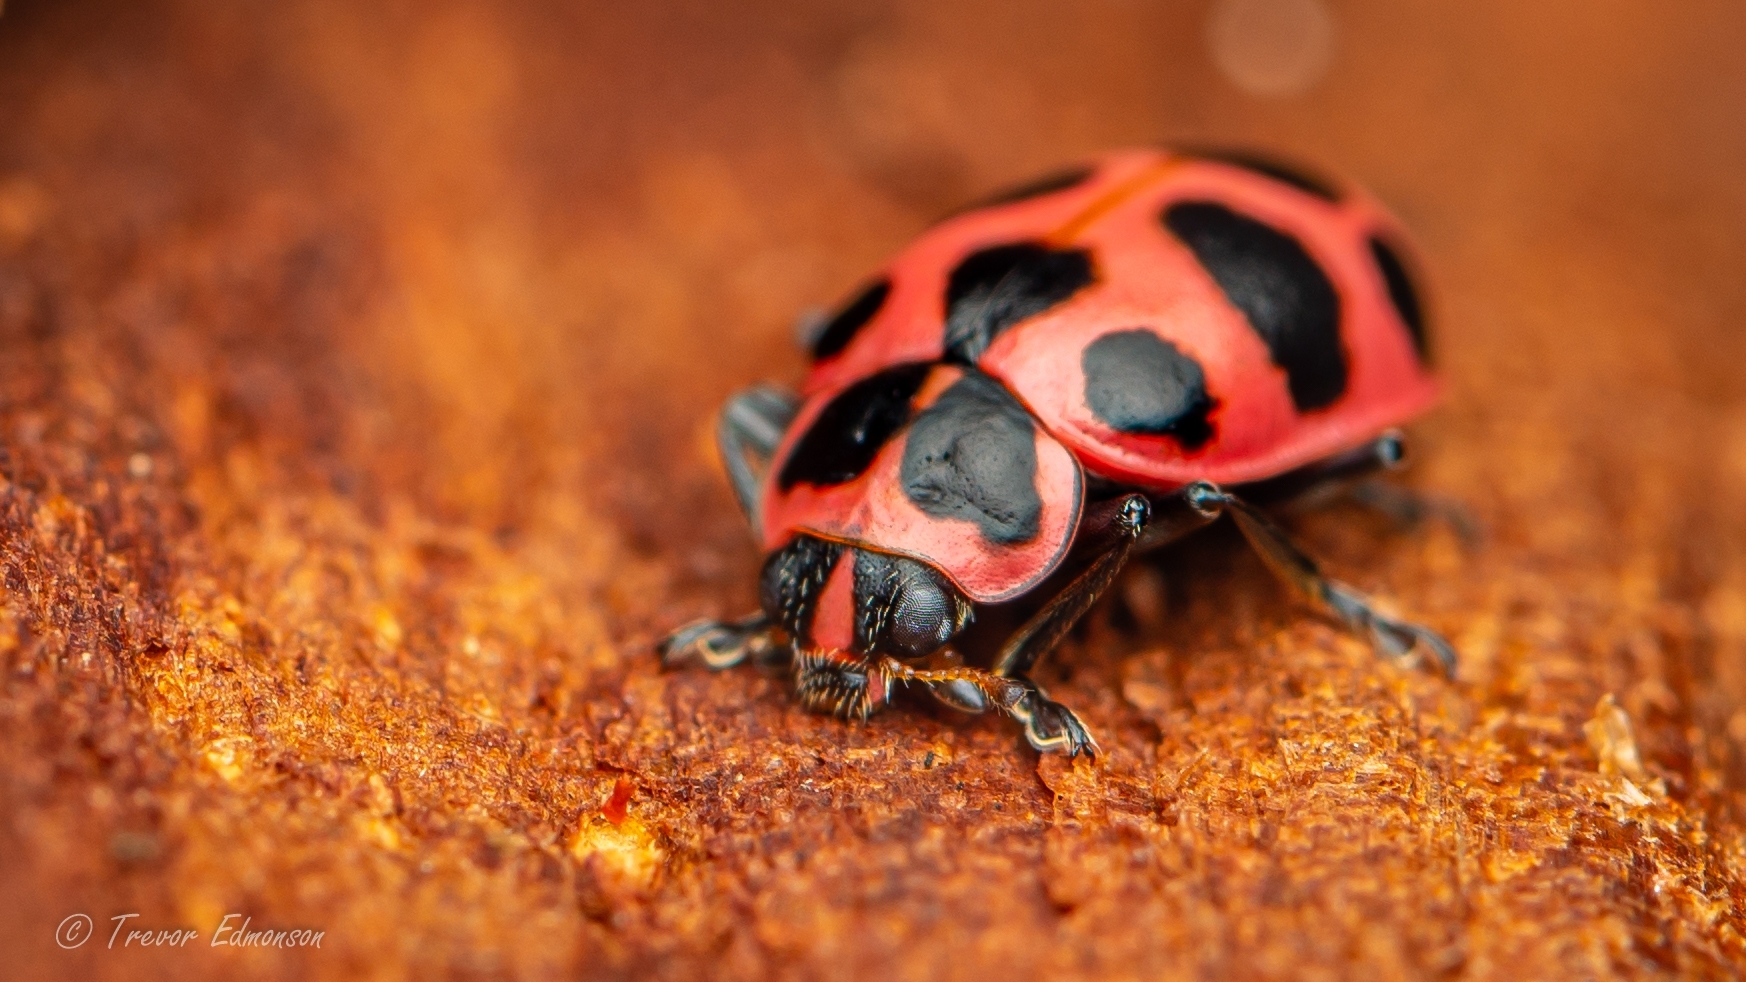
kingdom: Animalia
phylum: Arthropoda
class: Insecta
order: Coleoptera
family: Coccinellidae
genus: Coleomegilla
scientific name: Coleomegilla maculata
